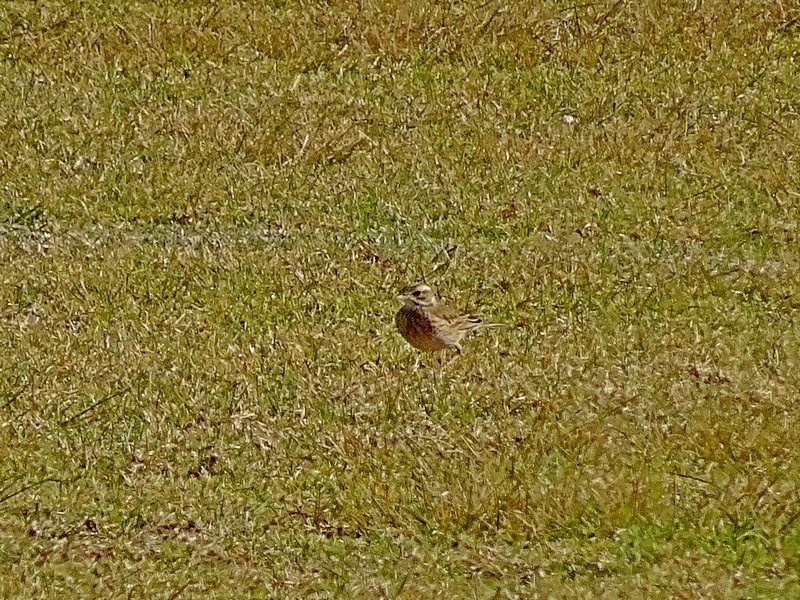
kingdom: Animalia
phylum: Chordata
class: Aves
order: Passeriformes
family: Motacillidae
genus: Anthus
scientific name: Anthus australis
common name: Australian pipit
